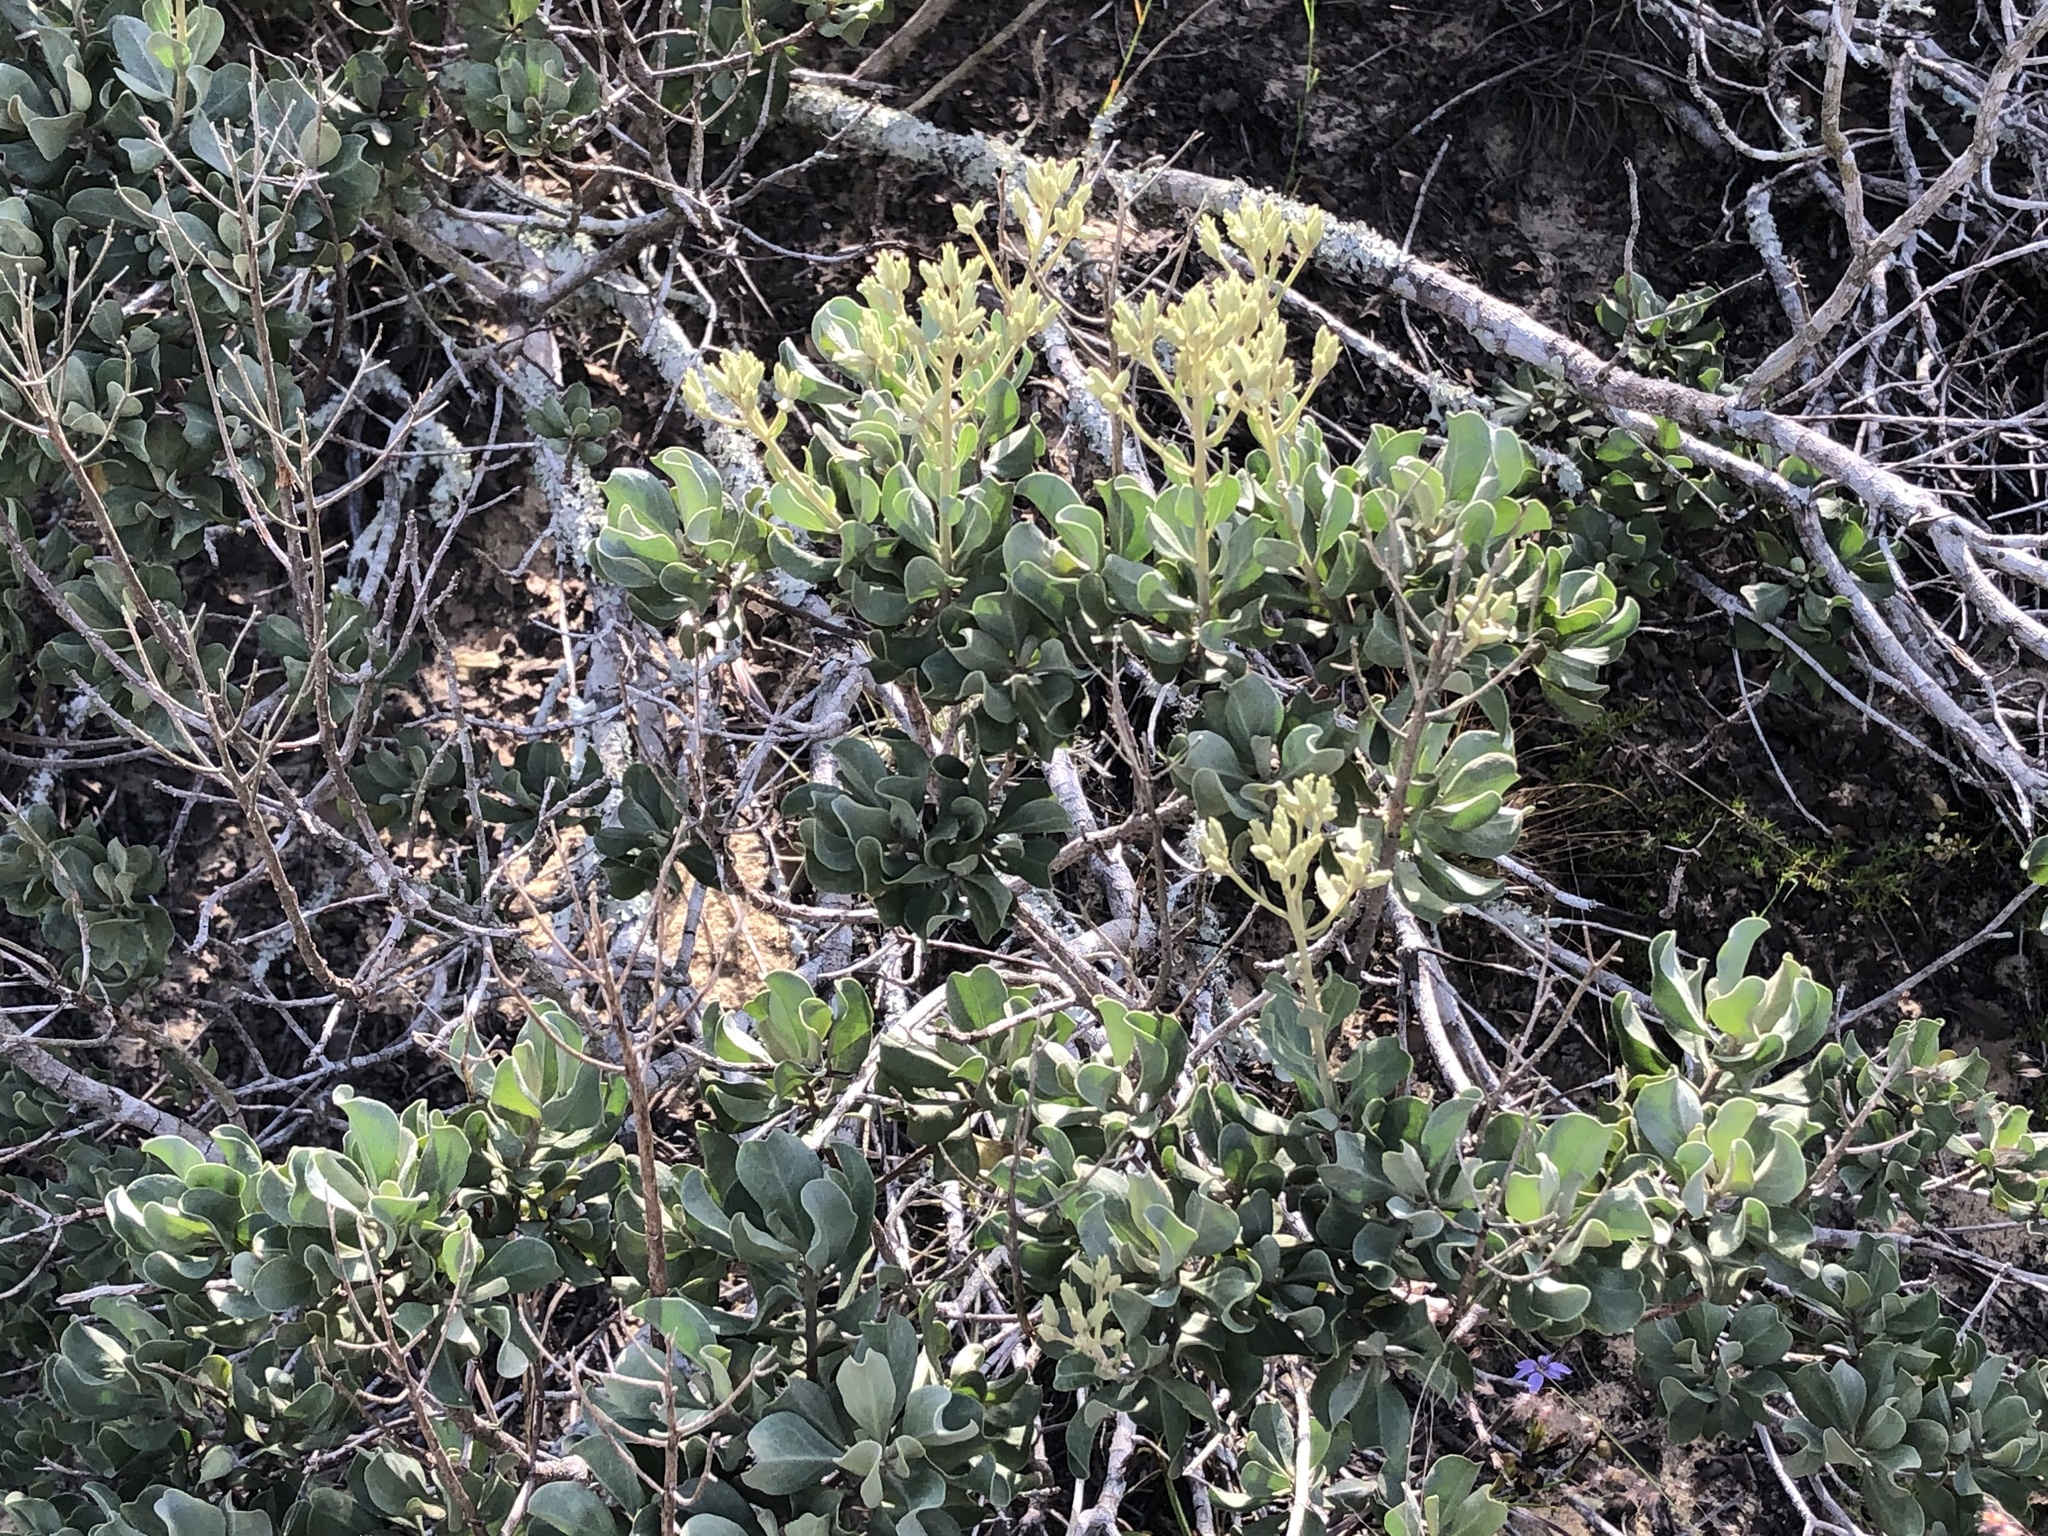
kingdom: Plantae
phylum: Tracheophyta
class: Magnoliopsida
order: Asterales
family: Asteraceae
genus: Garberia
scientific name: Garberia heterophylla
